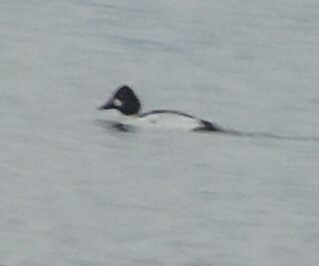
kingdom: Animalia
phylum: Chordata
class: Aves
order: Anseriformes
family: Anatidae
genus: Bucephala
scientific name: Bucephala clangula
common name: Common goldeneye
